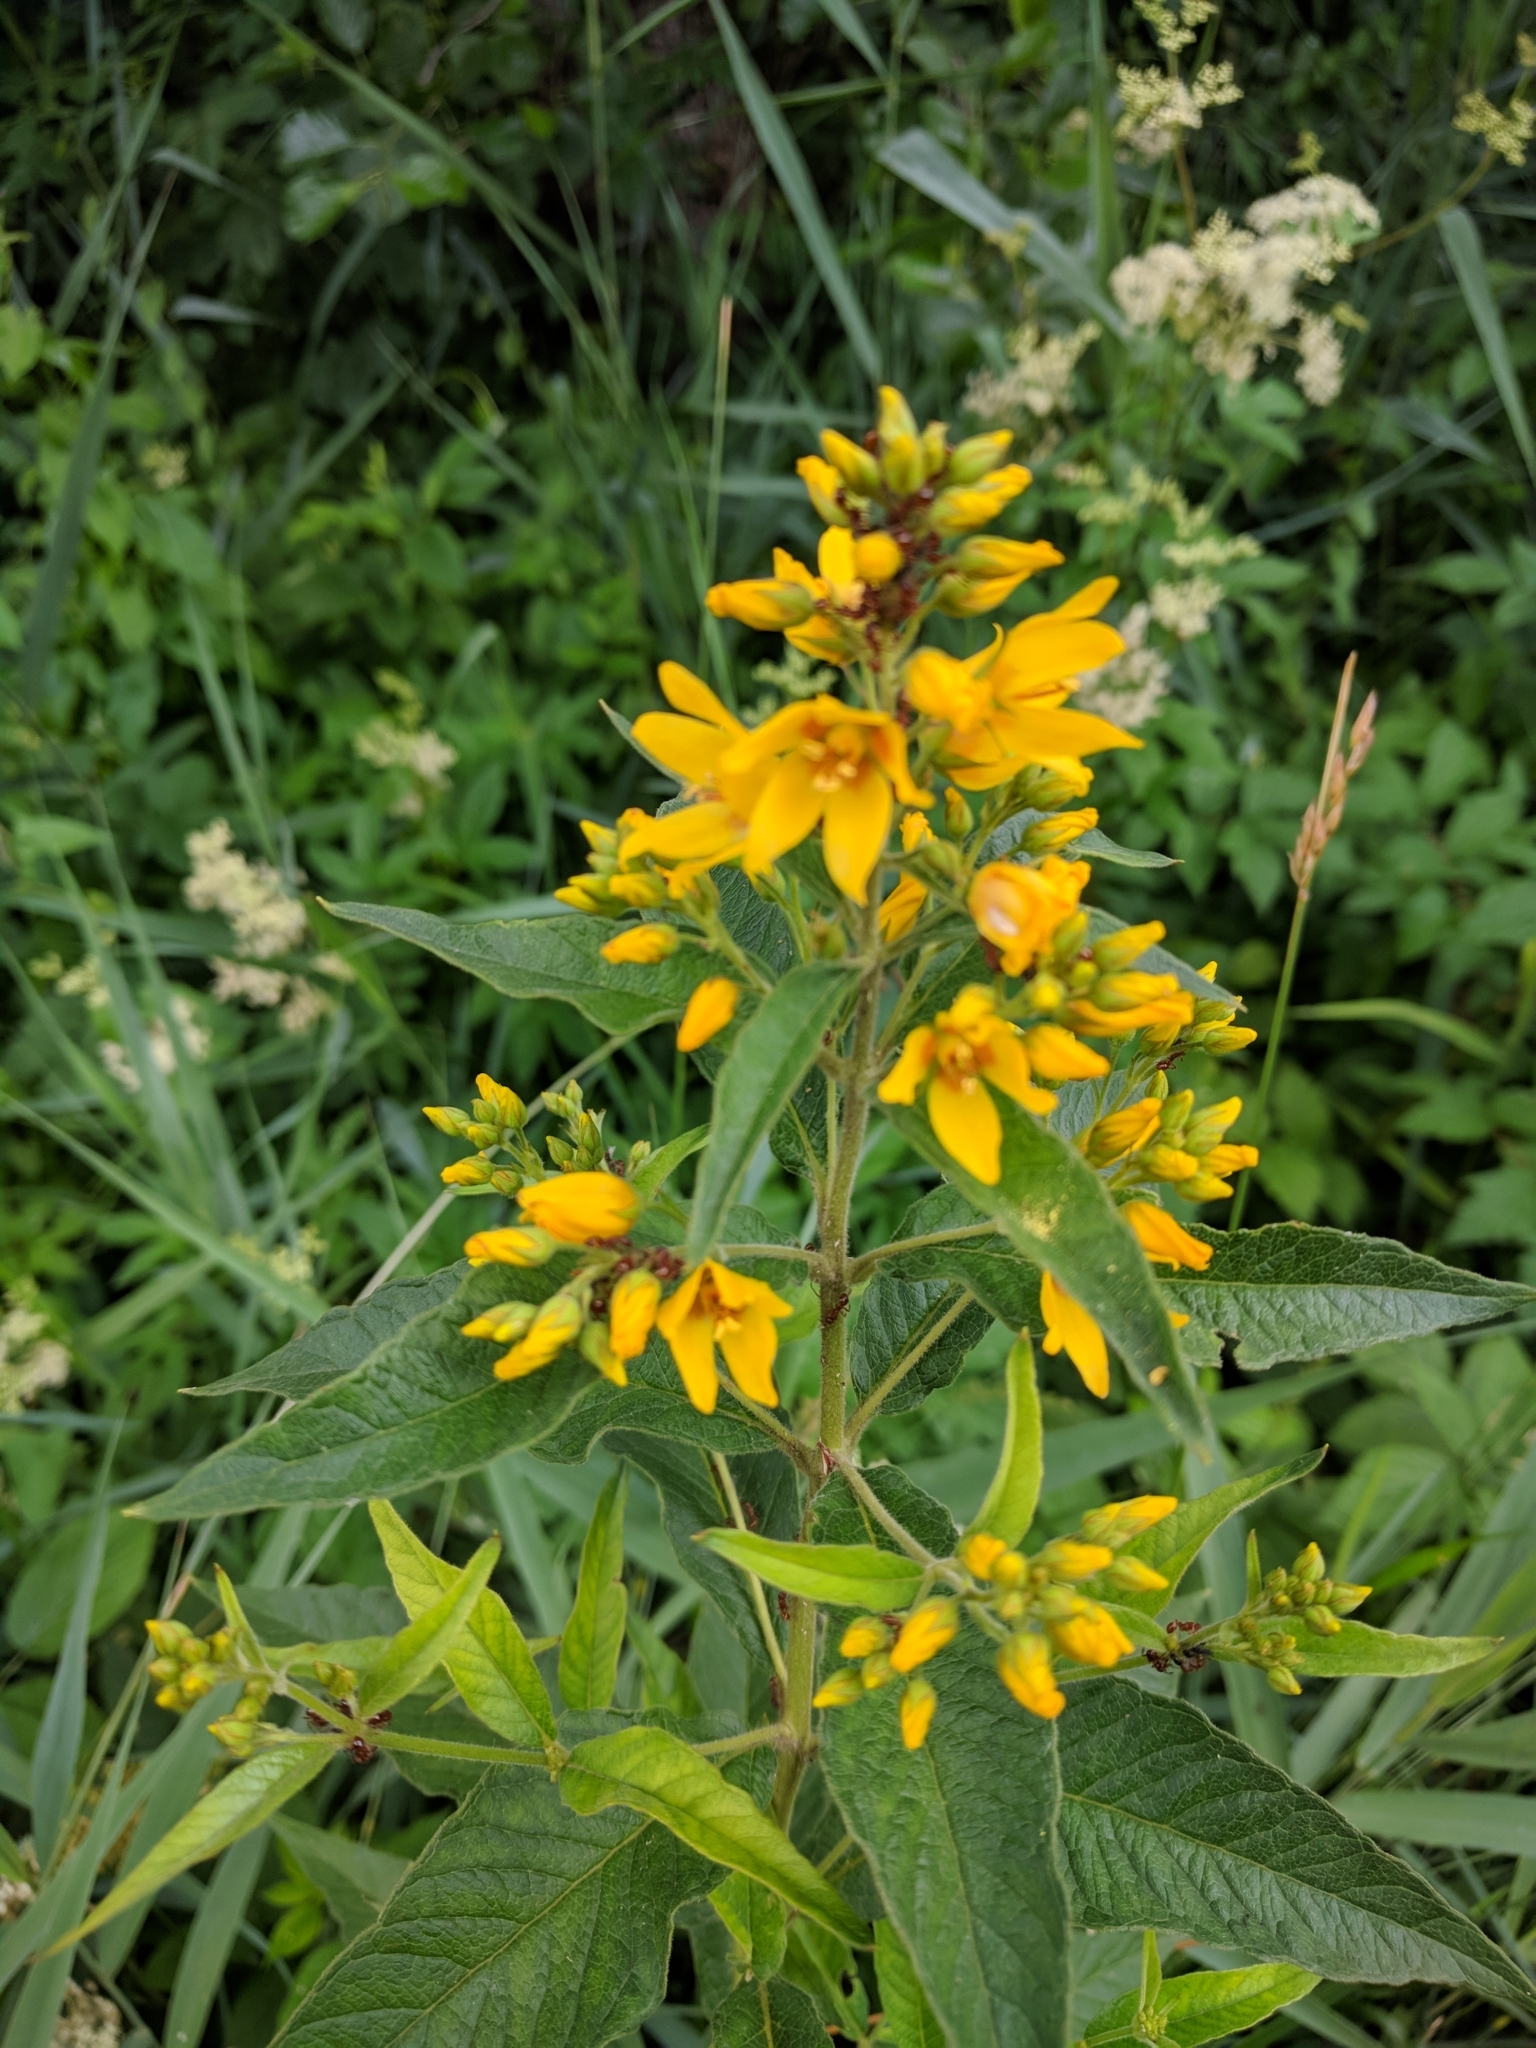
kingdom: Plantae
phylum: Tracheophyta
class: Magnoliopsida
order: Ericales
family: Primulaceae
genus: Lysimachia
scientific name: Lysimachia vulgaris
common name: Yellow loosestrife
